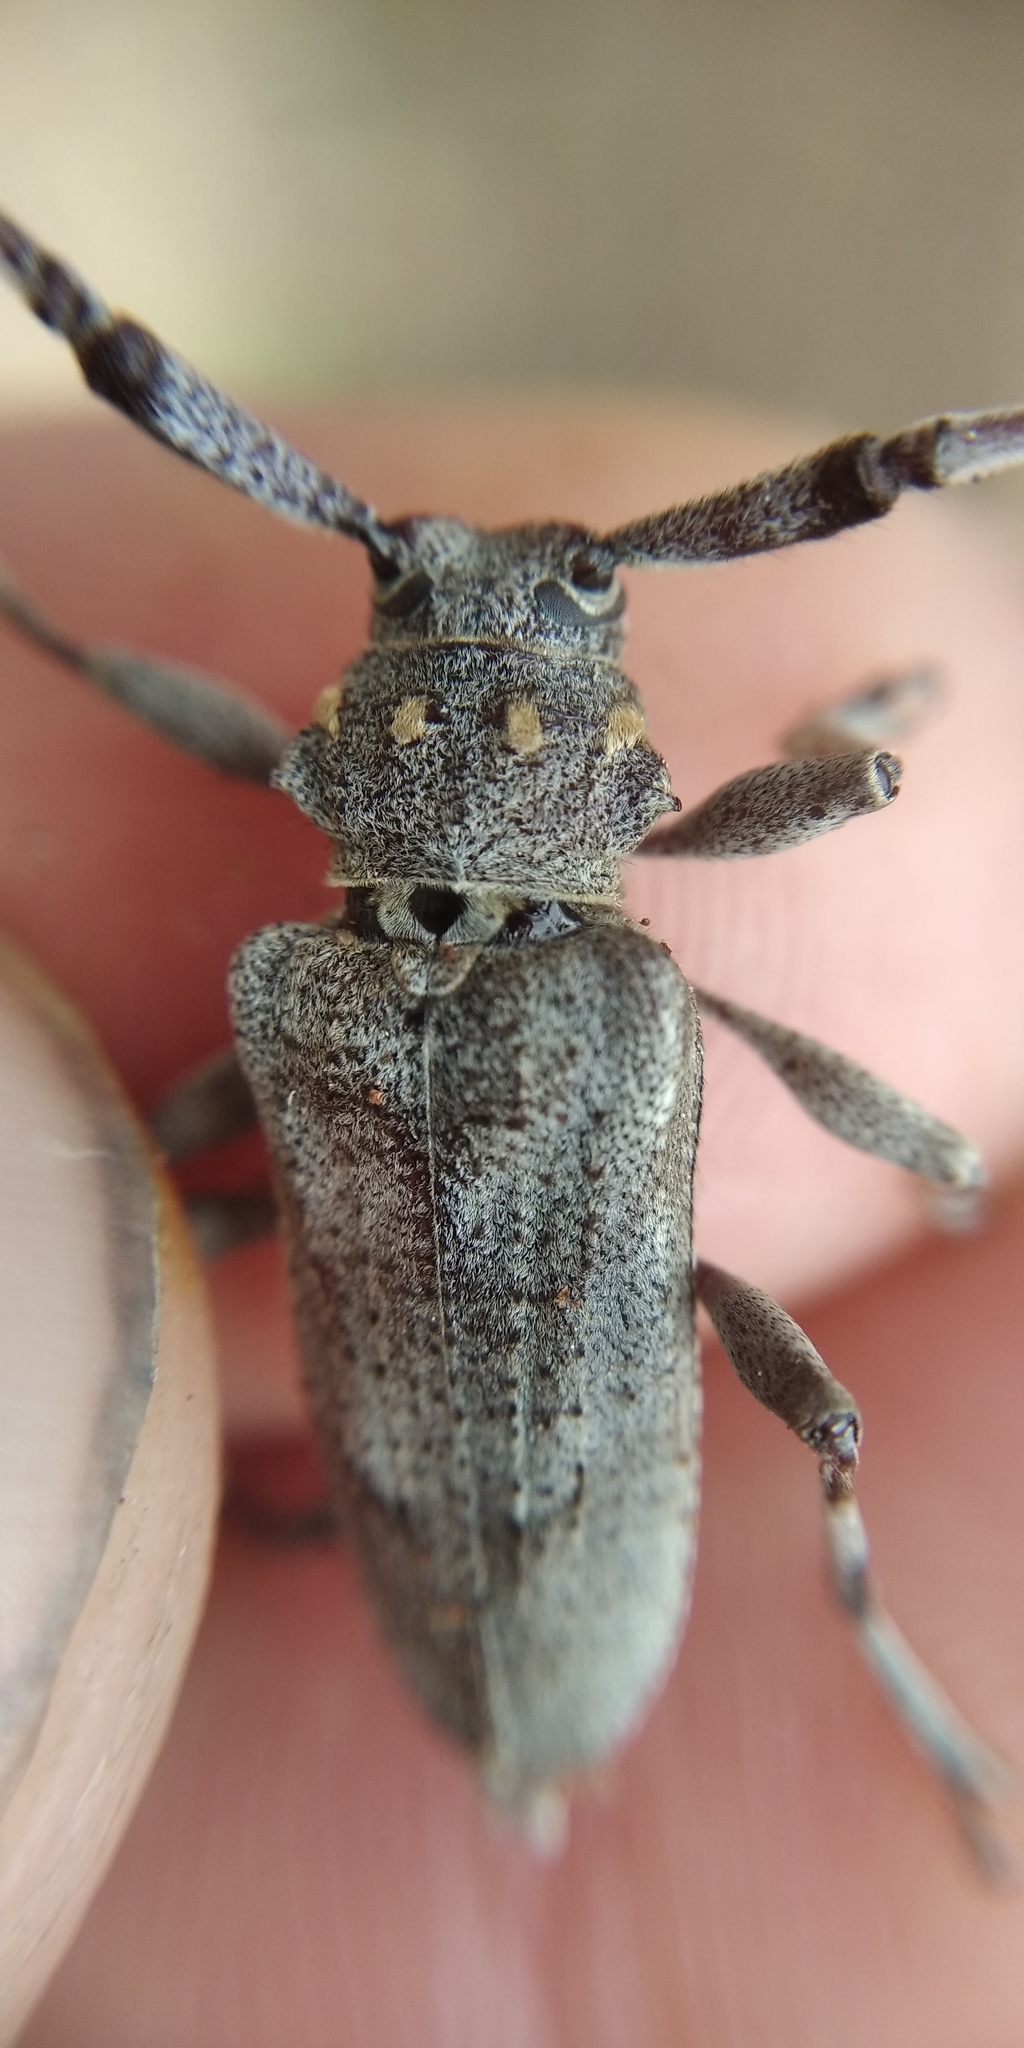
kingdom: Animalia
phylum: Arthropoda
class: Insecta
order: Coleoptera
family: Cerambycidae
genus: Acanthocinus
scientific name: Acanthocinus aedilis
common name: Timberman beetle
